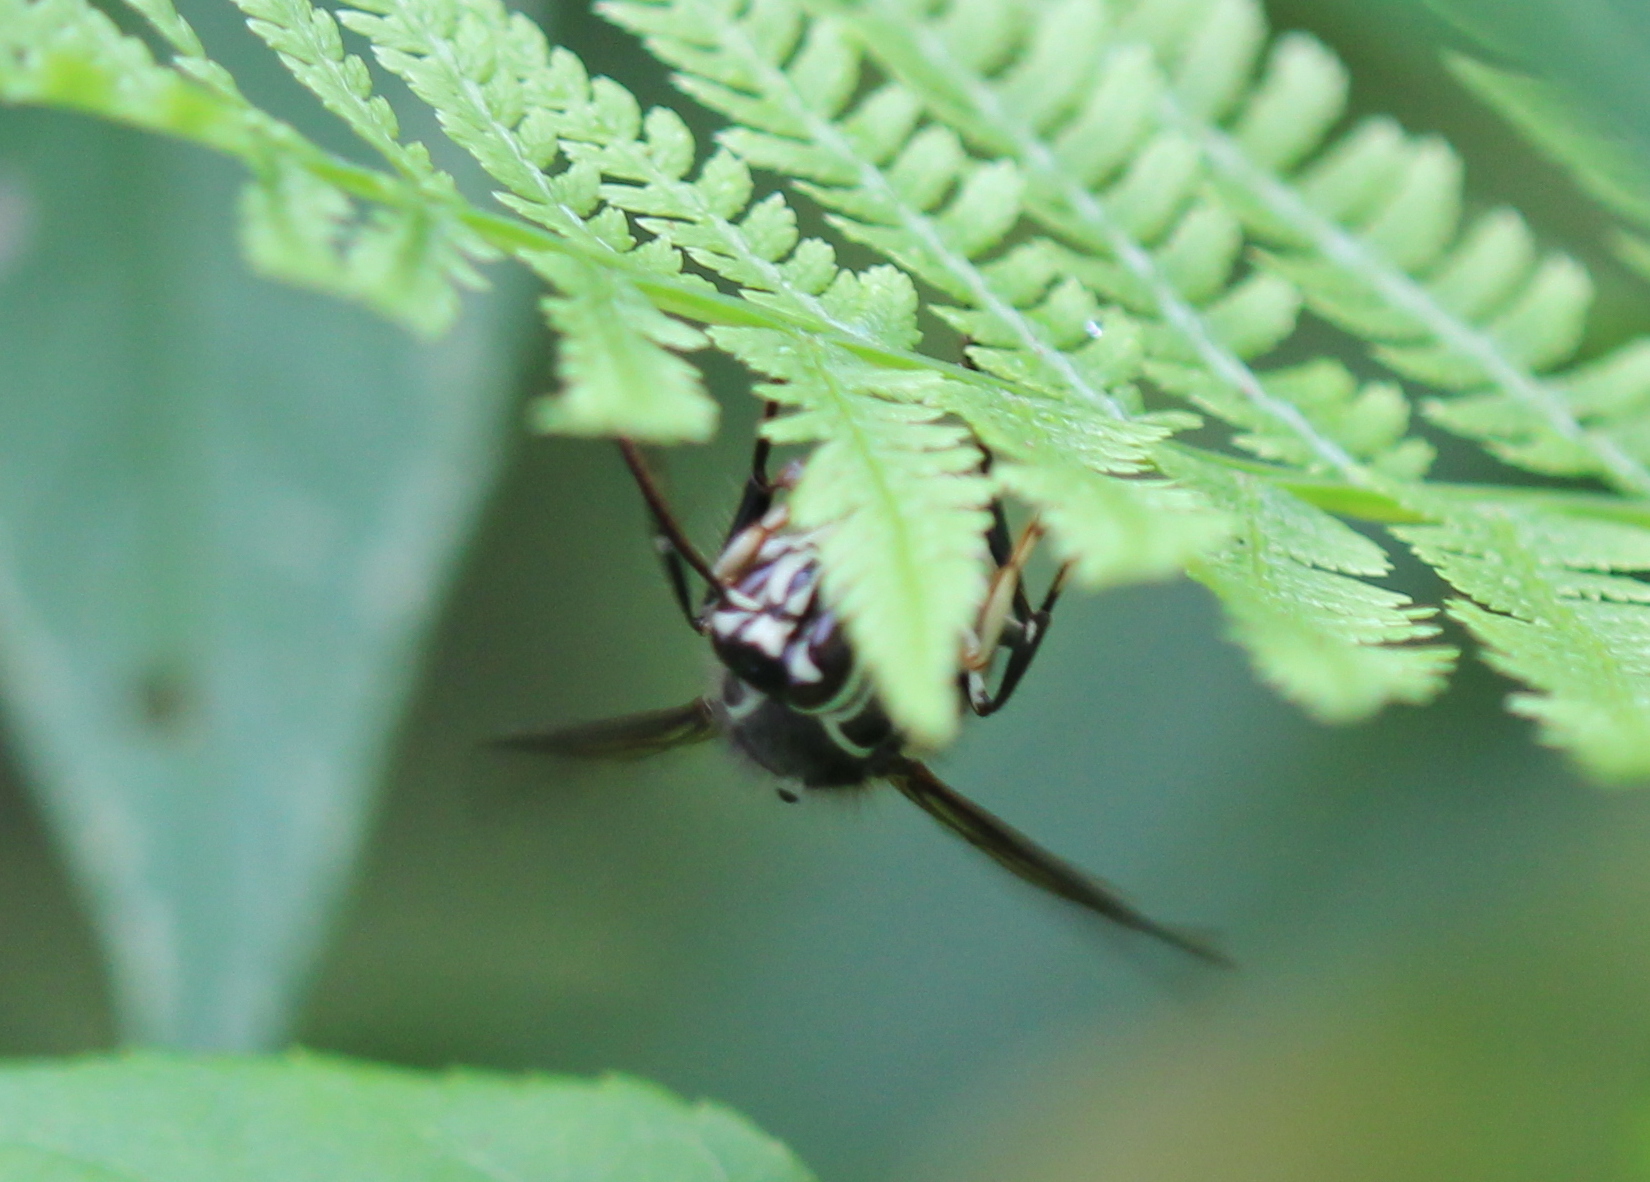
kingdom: Animalia
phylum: Arthropoda
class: Insecta
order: Hymenoptera
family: Vespidae
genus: Dolichovespula
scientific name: Dolichovespula maculata
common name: Bald-faced hornet
